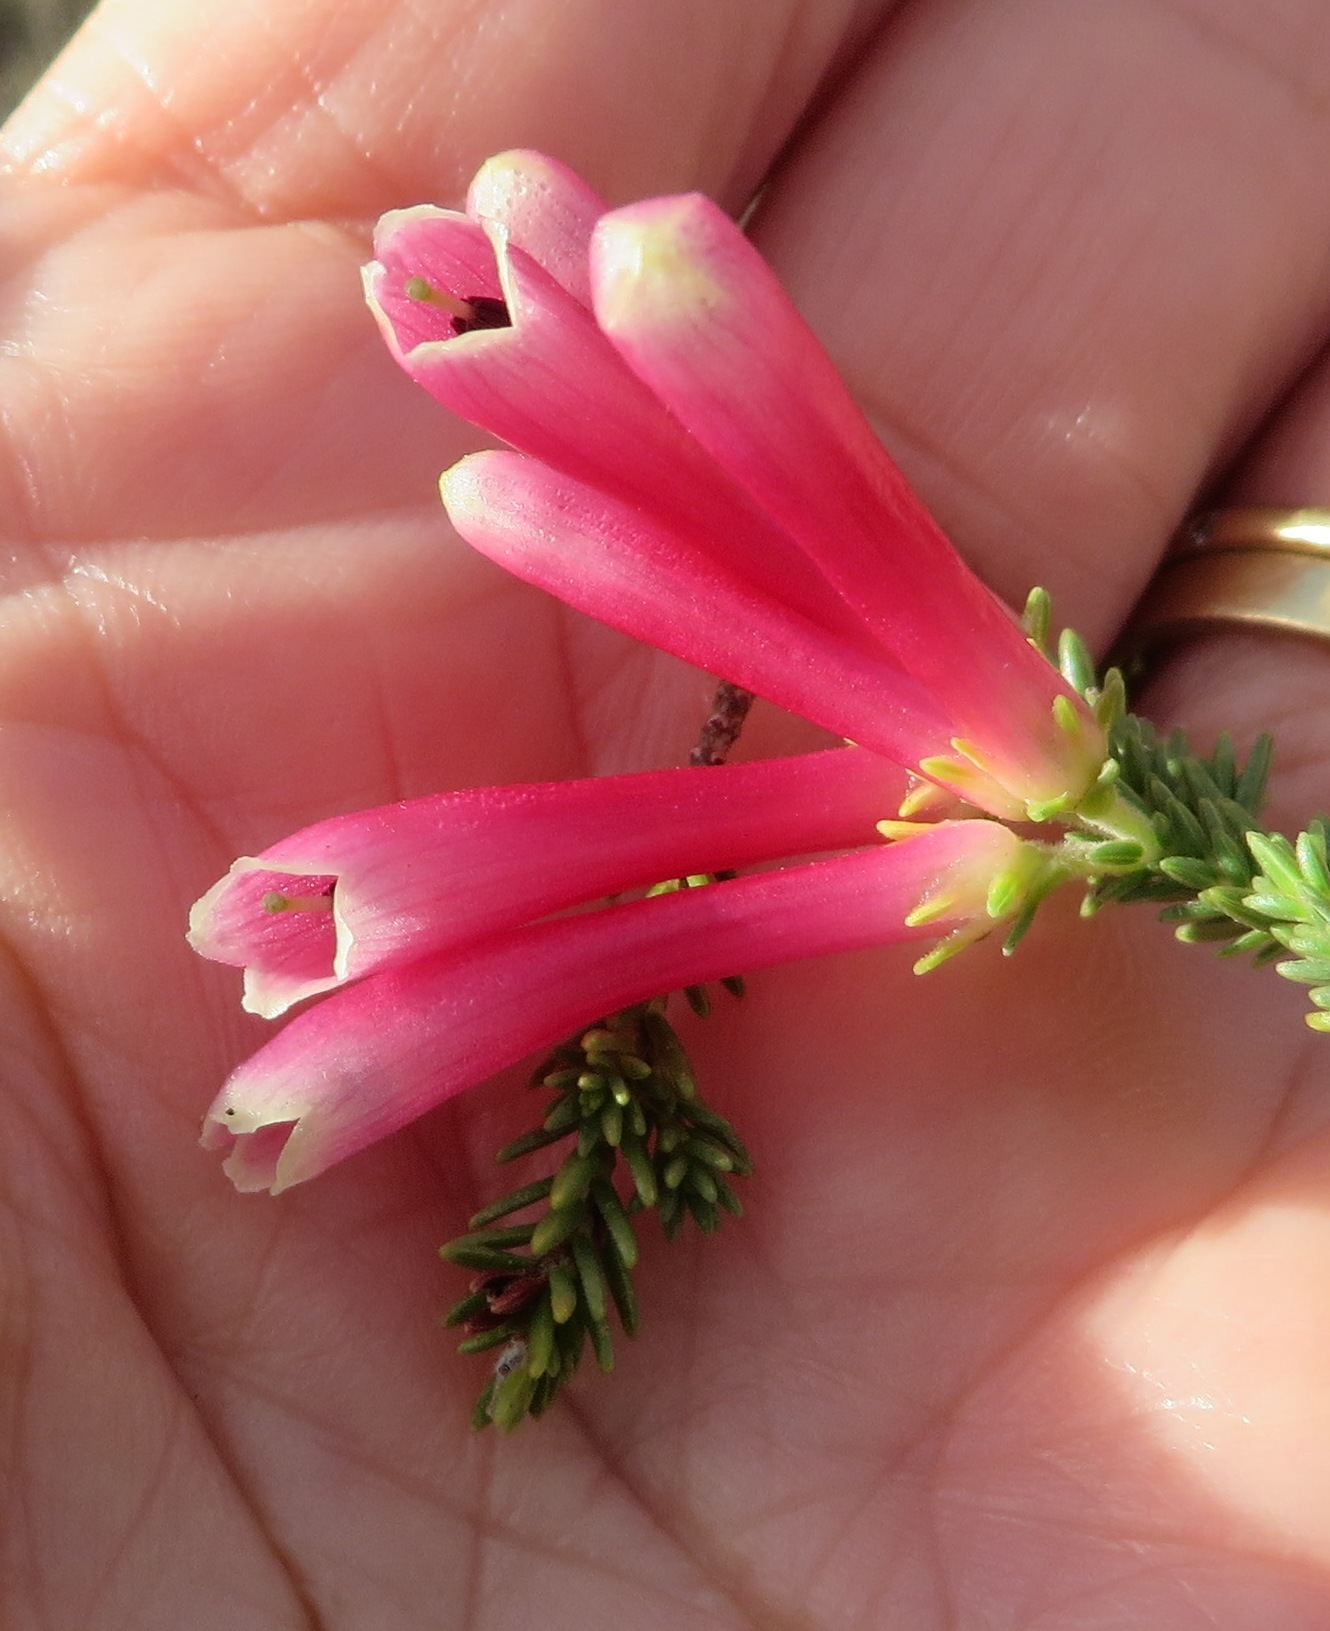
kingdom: Plantae
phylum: Tracheophyta
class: Magnoliopsida
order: Ericales
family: Ericaceae
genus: Erica
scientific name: Erica discolor
